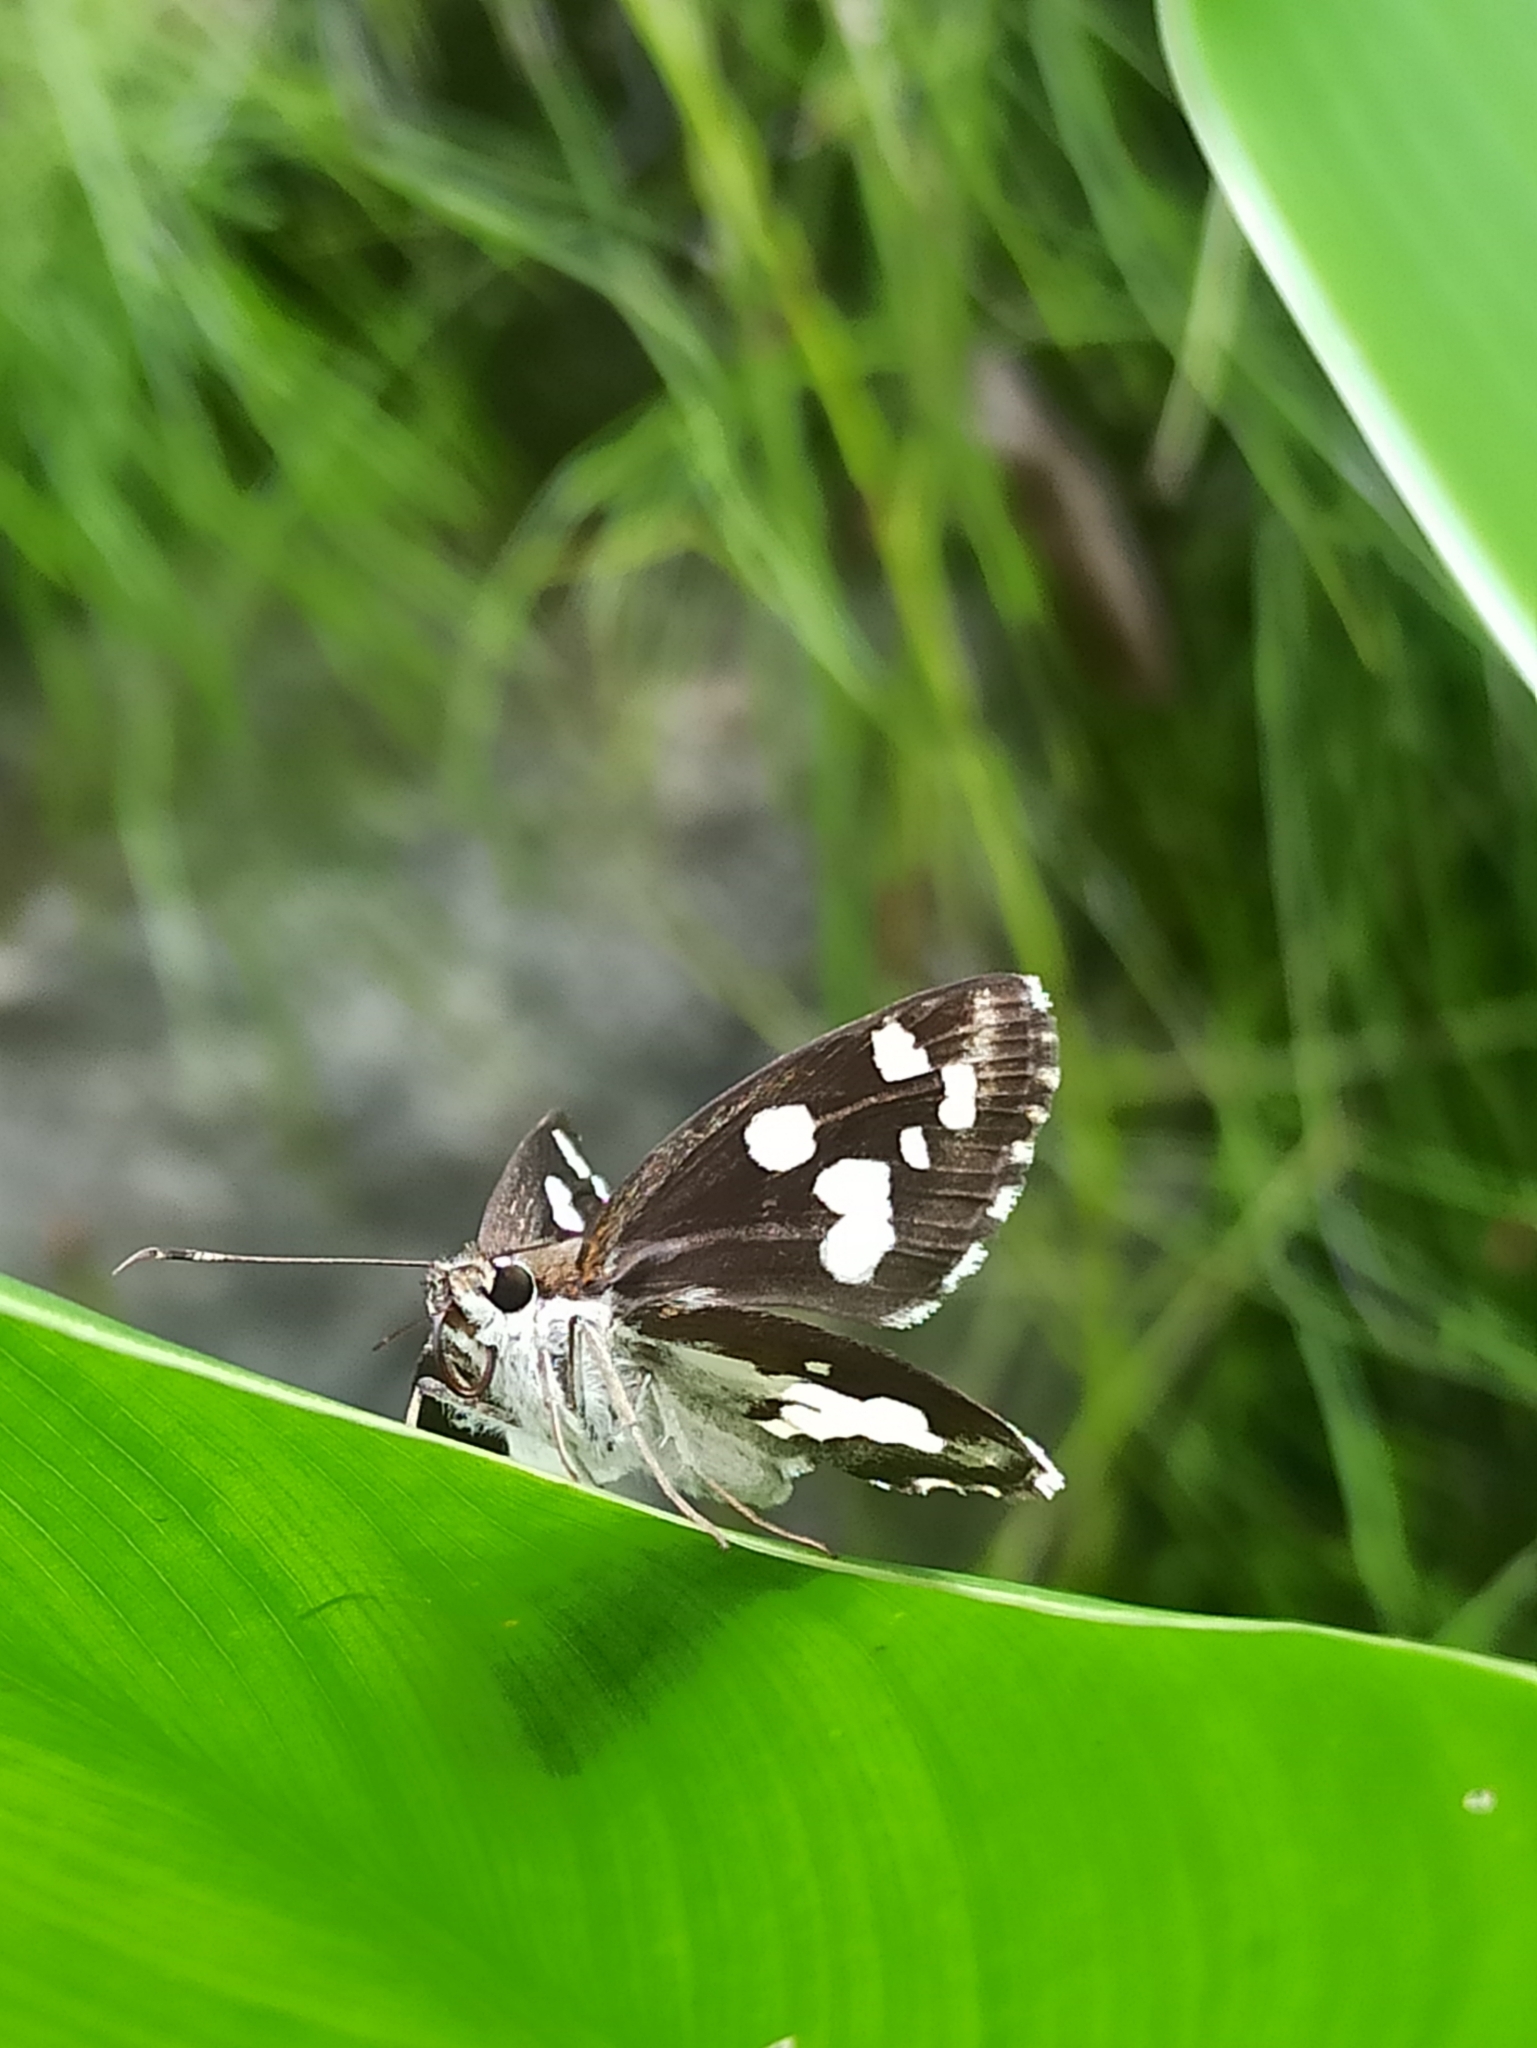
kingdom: Animalia
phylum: Arthropoda
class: Insecta
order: Lepidoptera
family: Hesperiidae
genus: Udaspes
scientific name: Udaspes folus
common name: Grass demon
